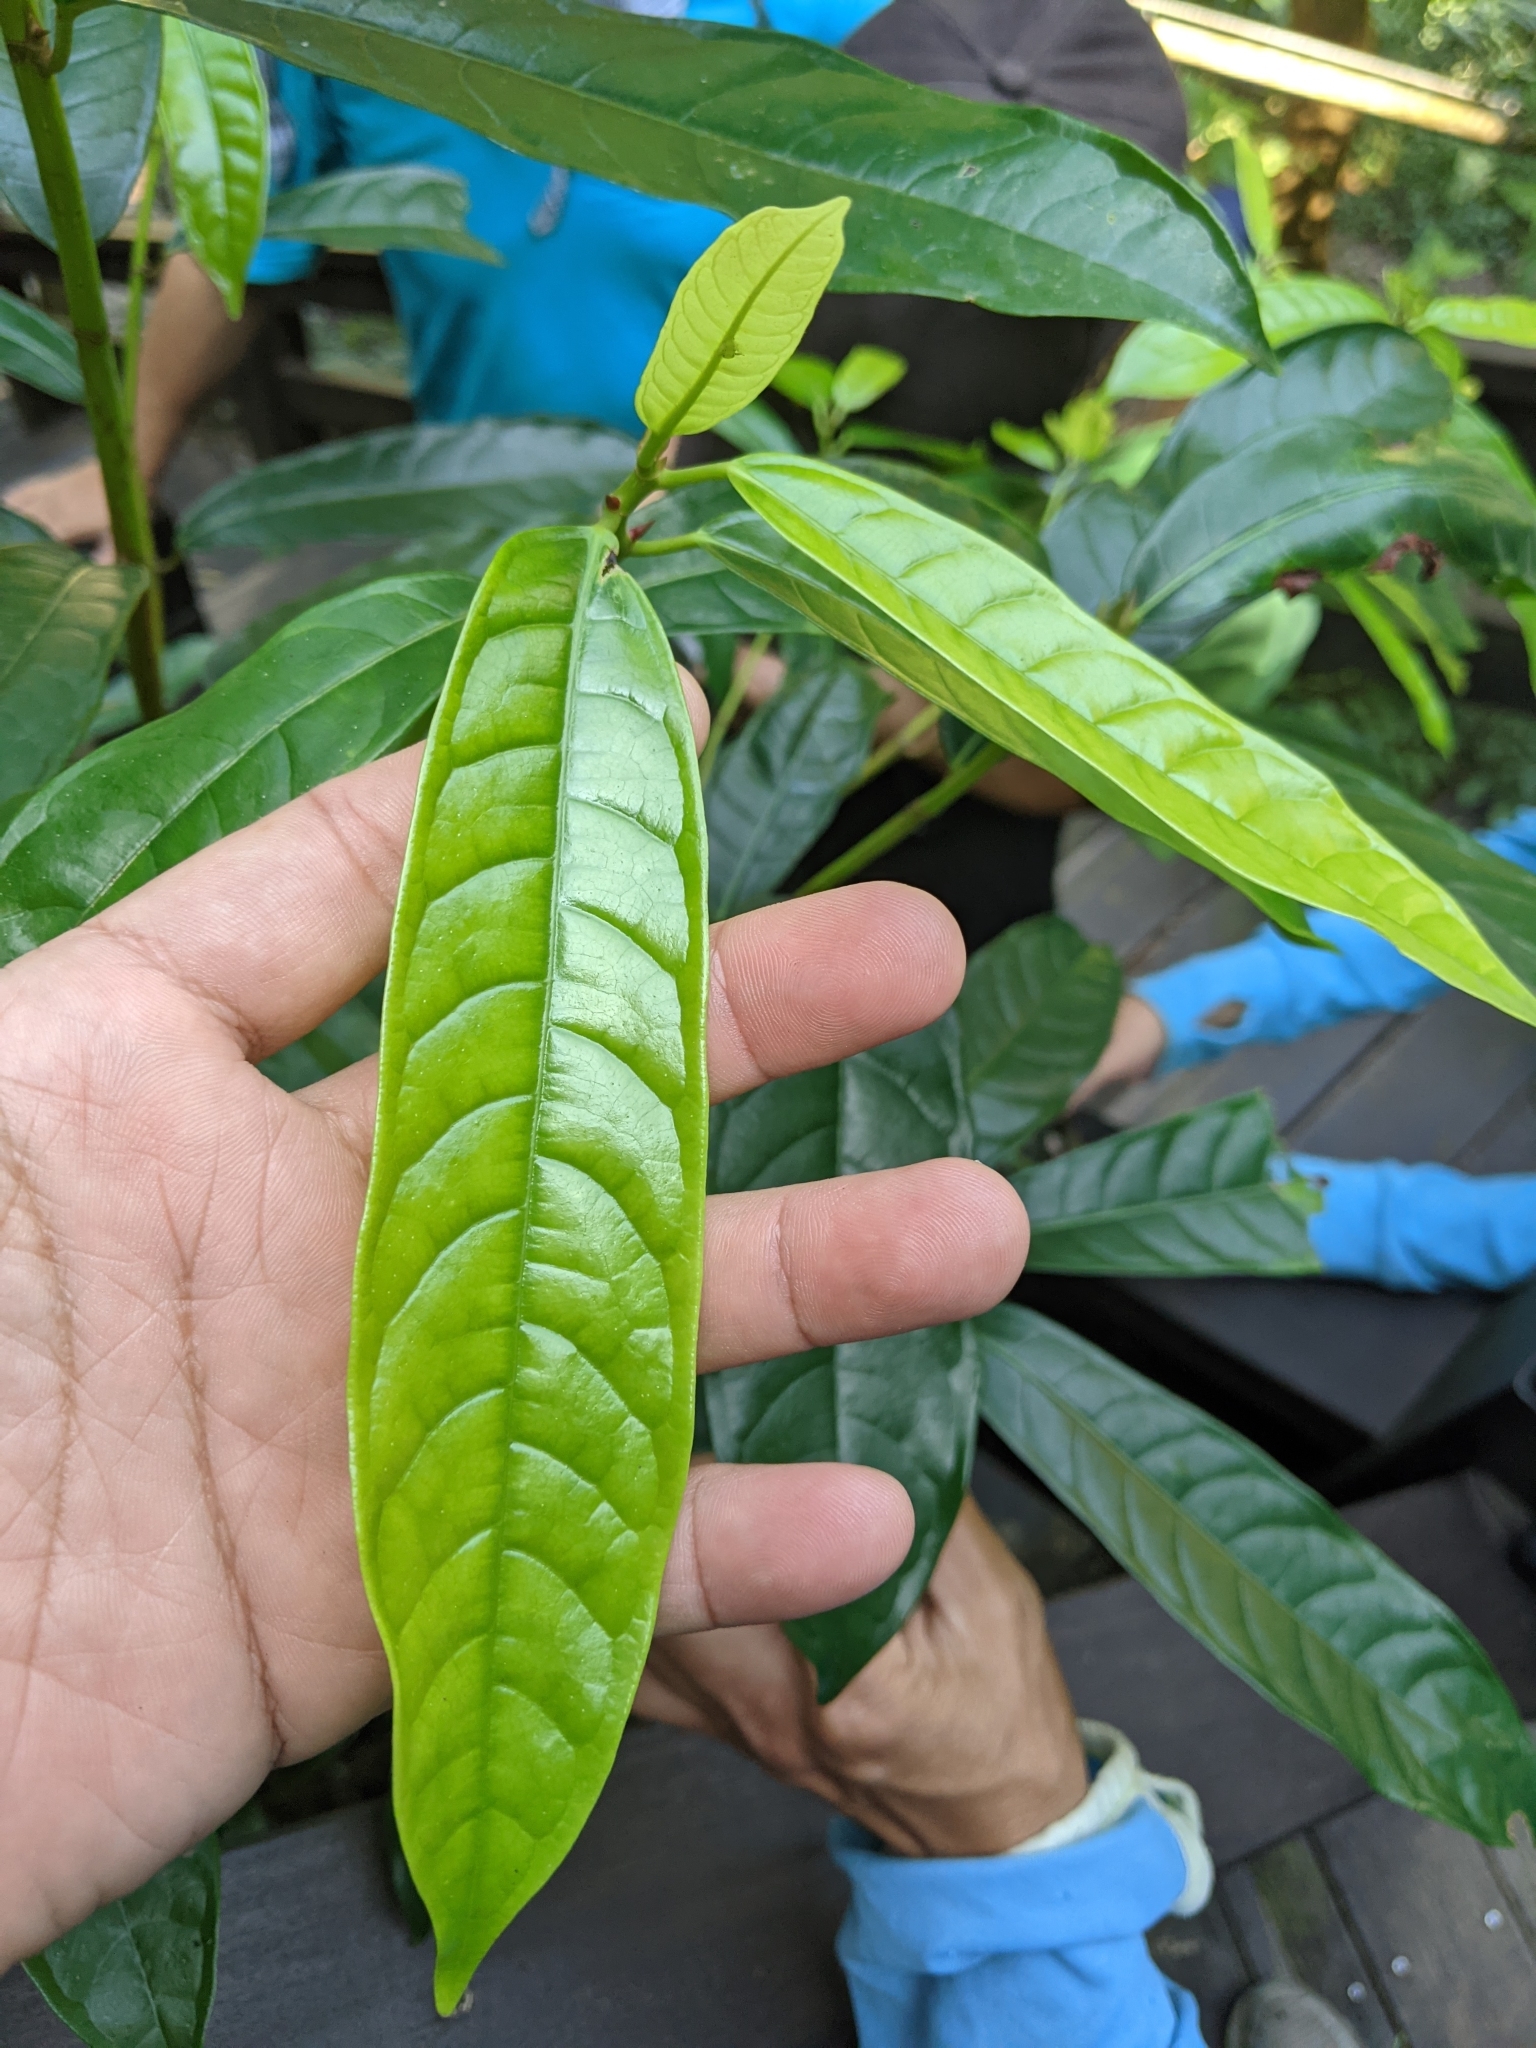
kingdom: Plantae
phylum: Tracheophyta
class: Magnoliopsida
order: Rosales
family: Moraceae
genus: Ficus
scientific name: Ficus nervosa
